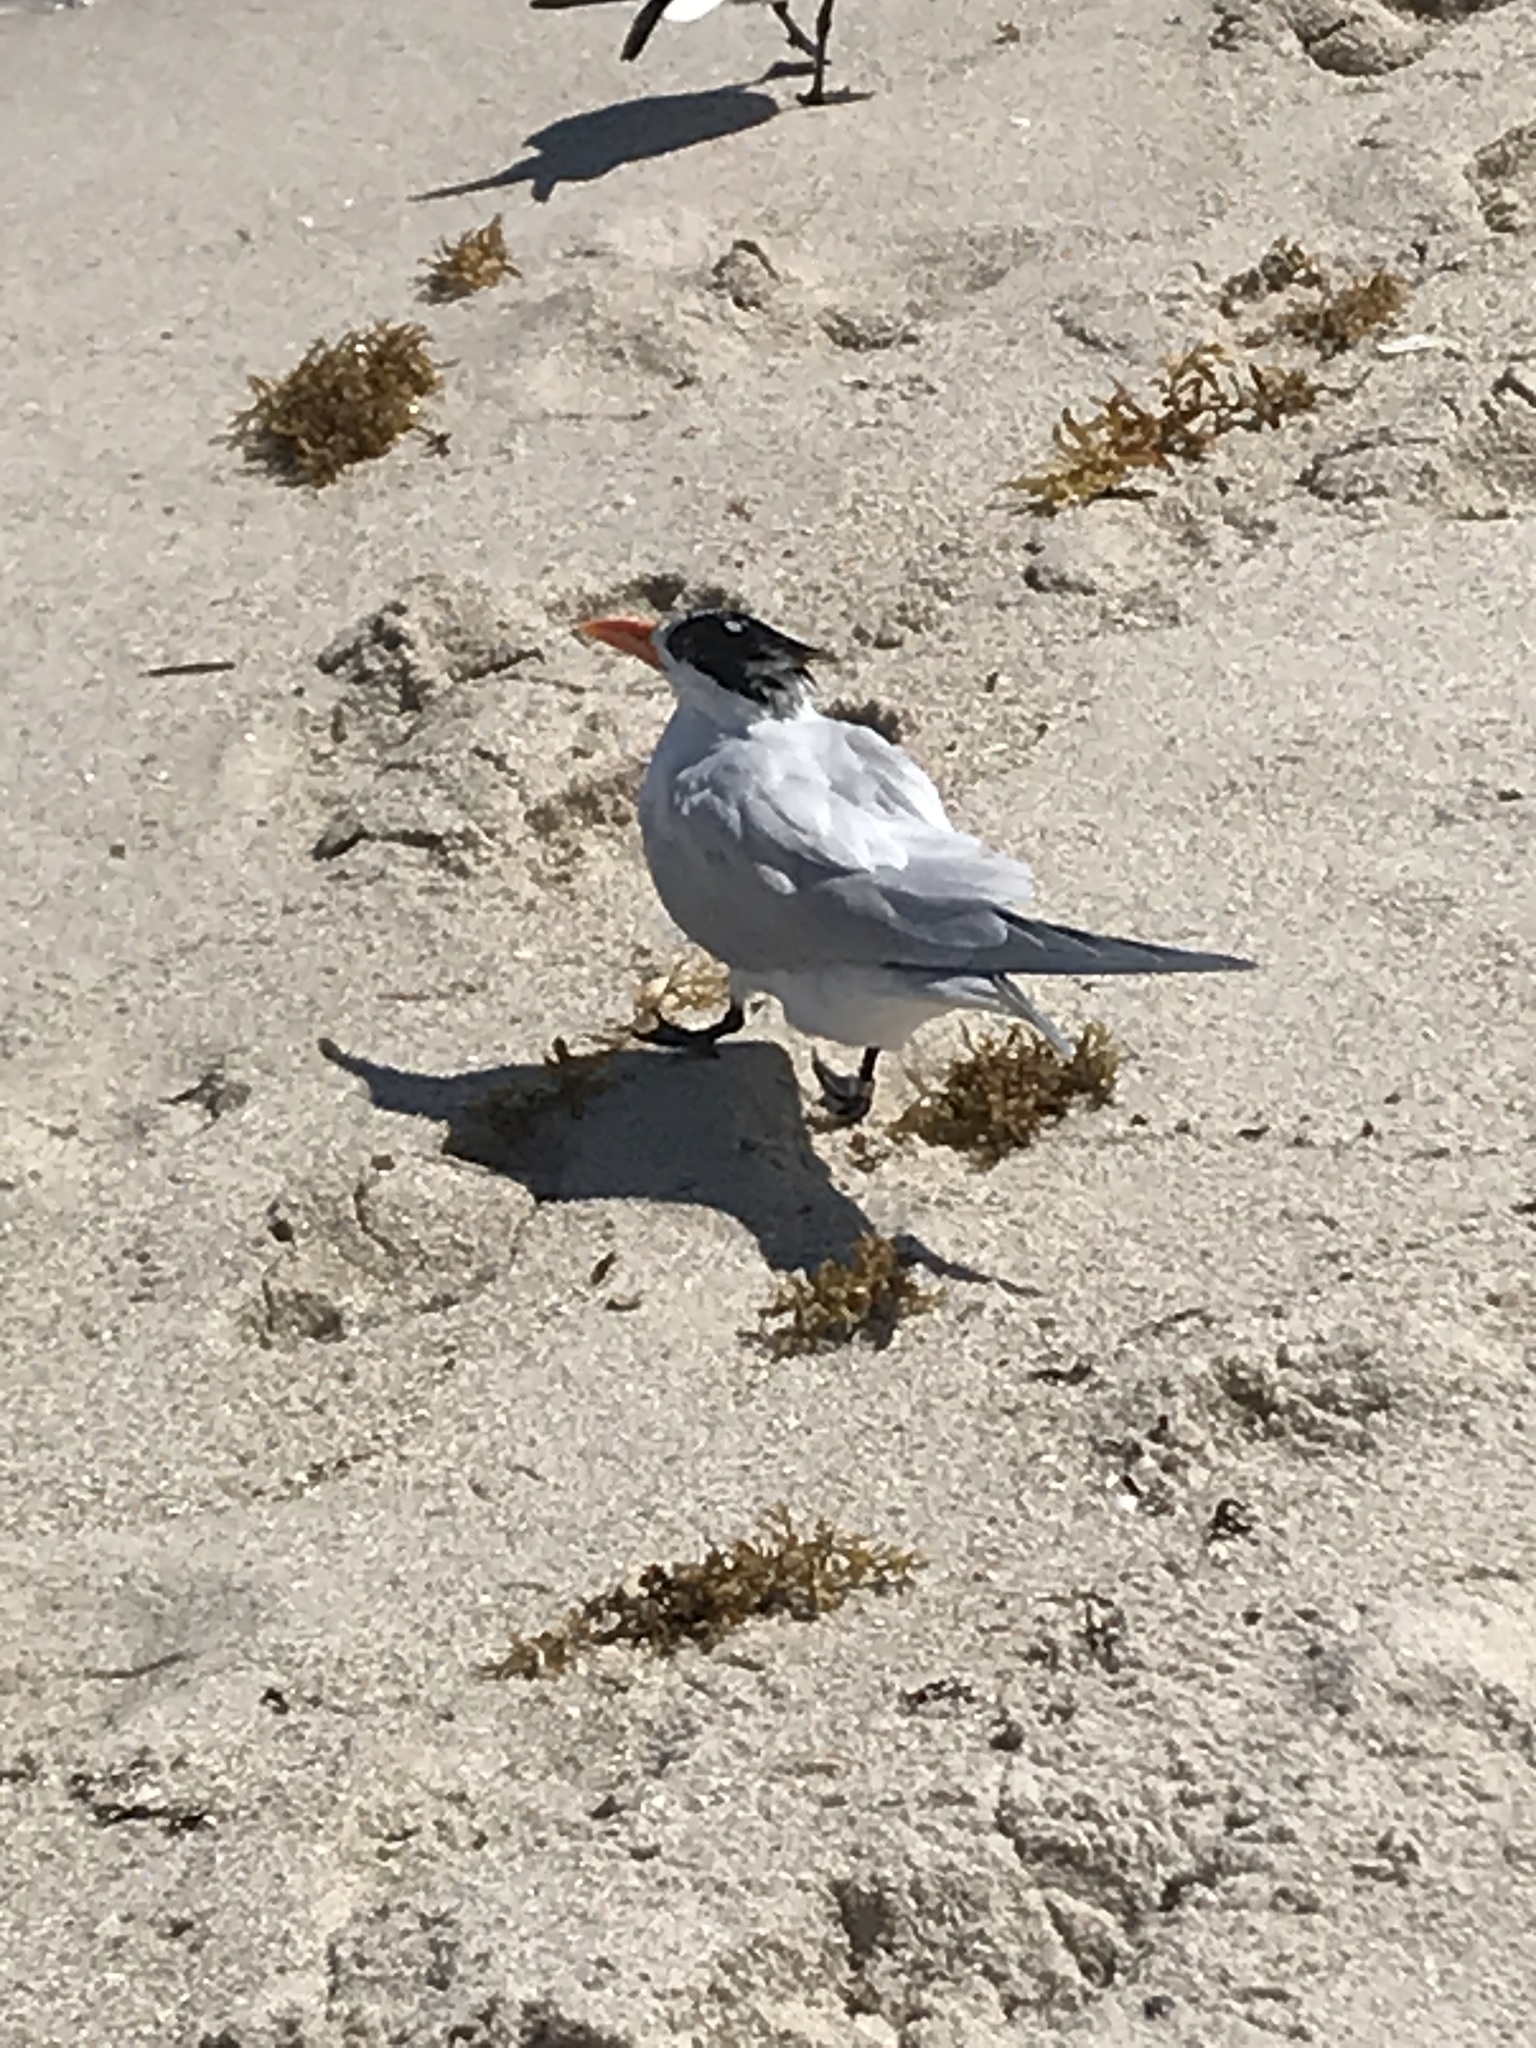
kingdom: Animalia
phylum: Chordata
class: Aves
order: Charadriiformes
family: Laridae
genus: Thalasseus
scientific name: Thalasseus maximus
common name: Royal tern
